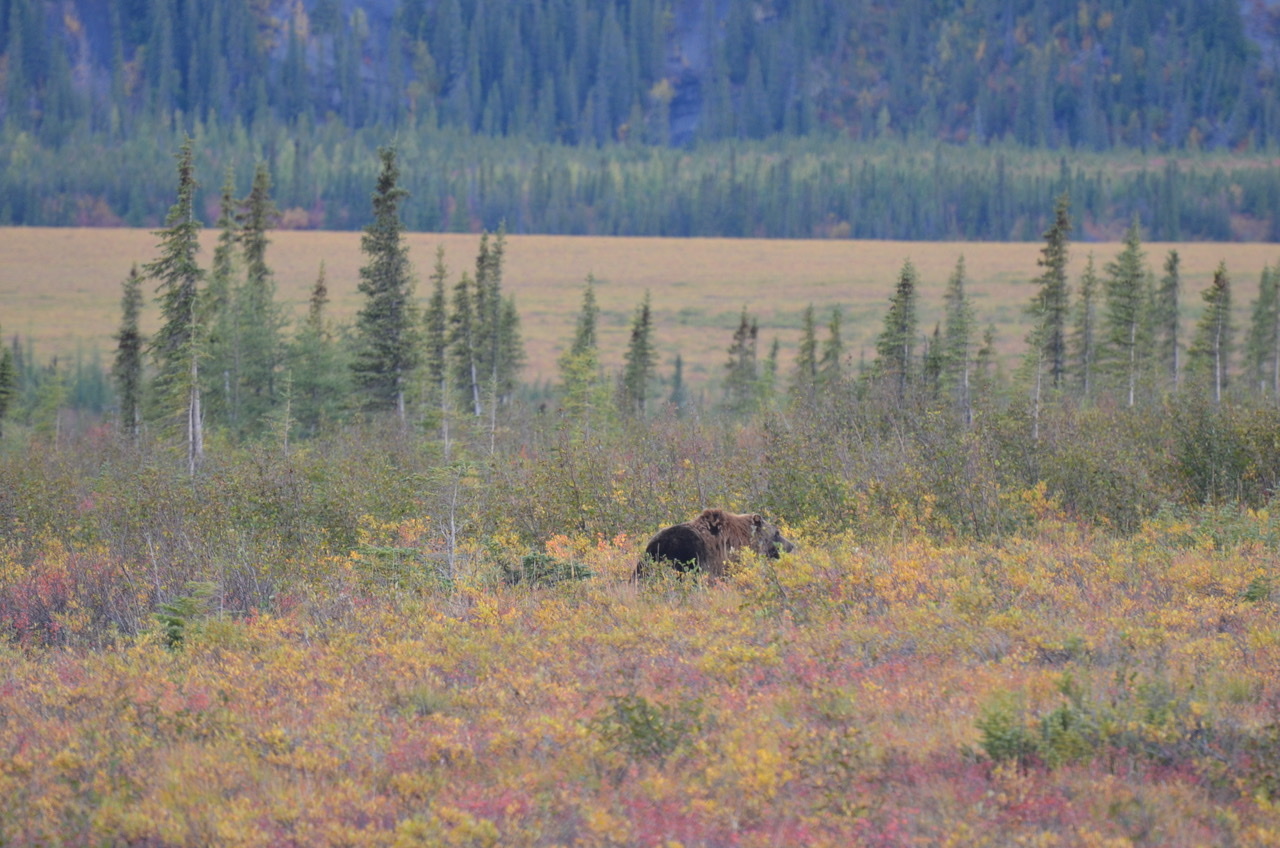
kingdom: Animalia
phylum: Chordata
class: Mammalia
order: Carnivora
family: Ursidae
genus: Ursus
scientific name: Ursus arctos
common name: Brown bear
